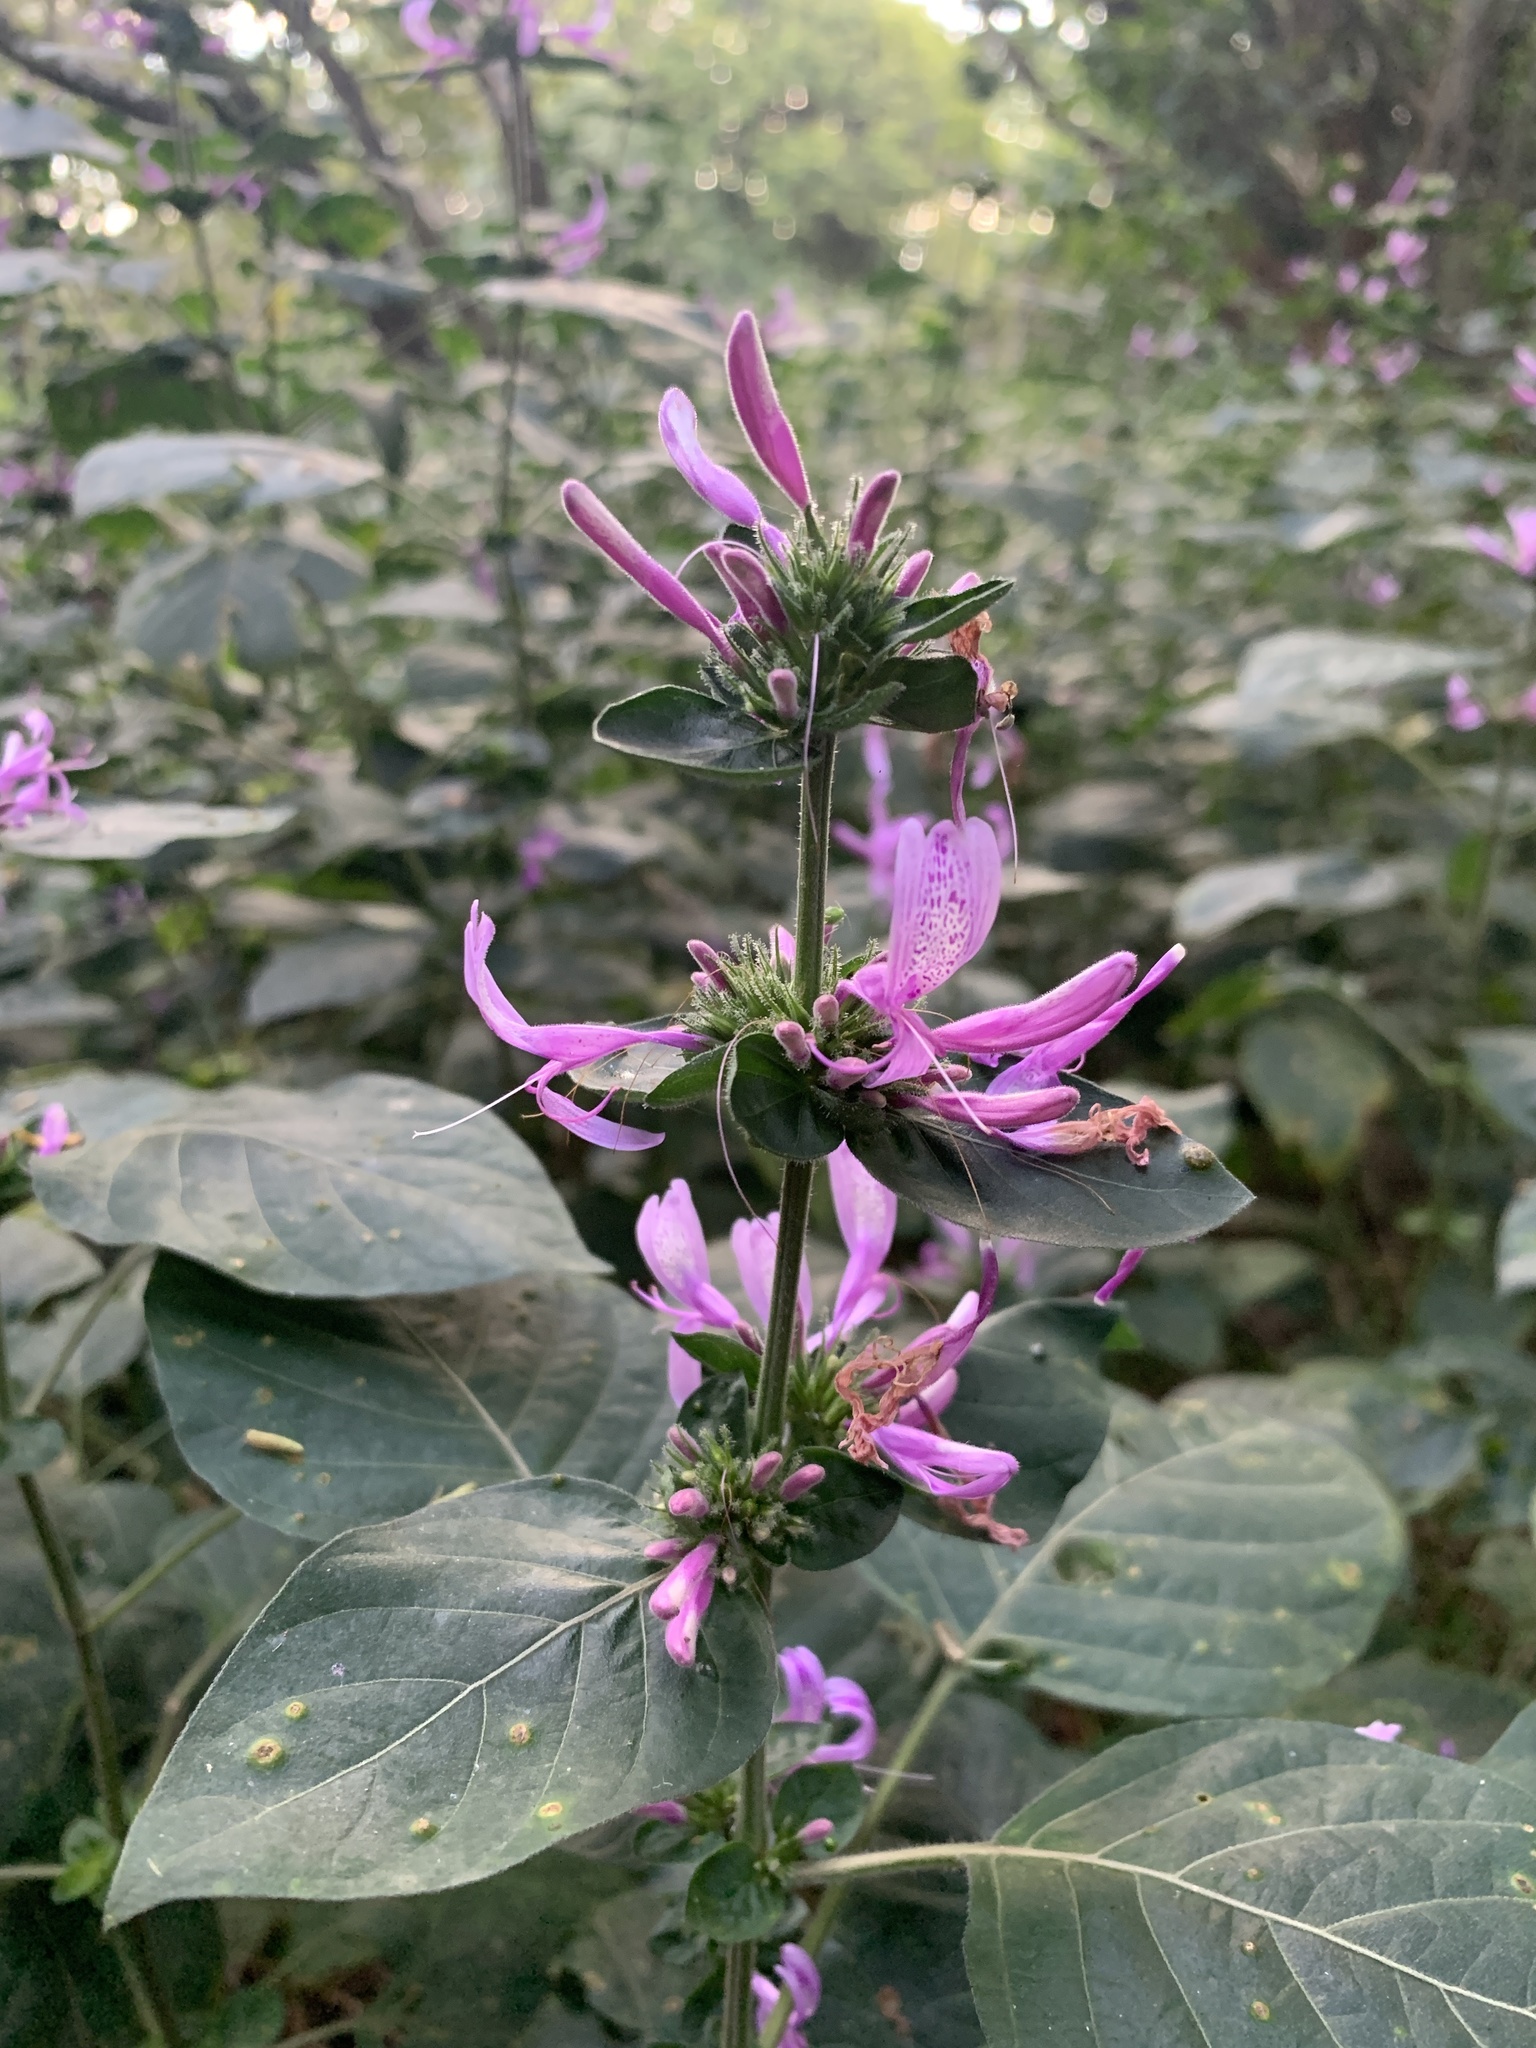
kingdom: Plantae
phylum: Tracheophyta
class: Magnoliopsida
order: Lamiales
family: Acanthaceae
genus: Hypoestes
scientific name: Hypoestes aristata
